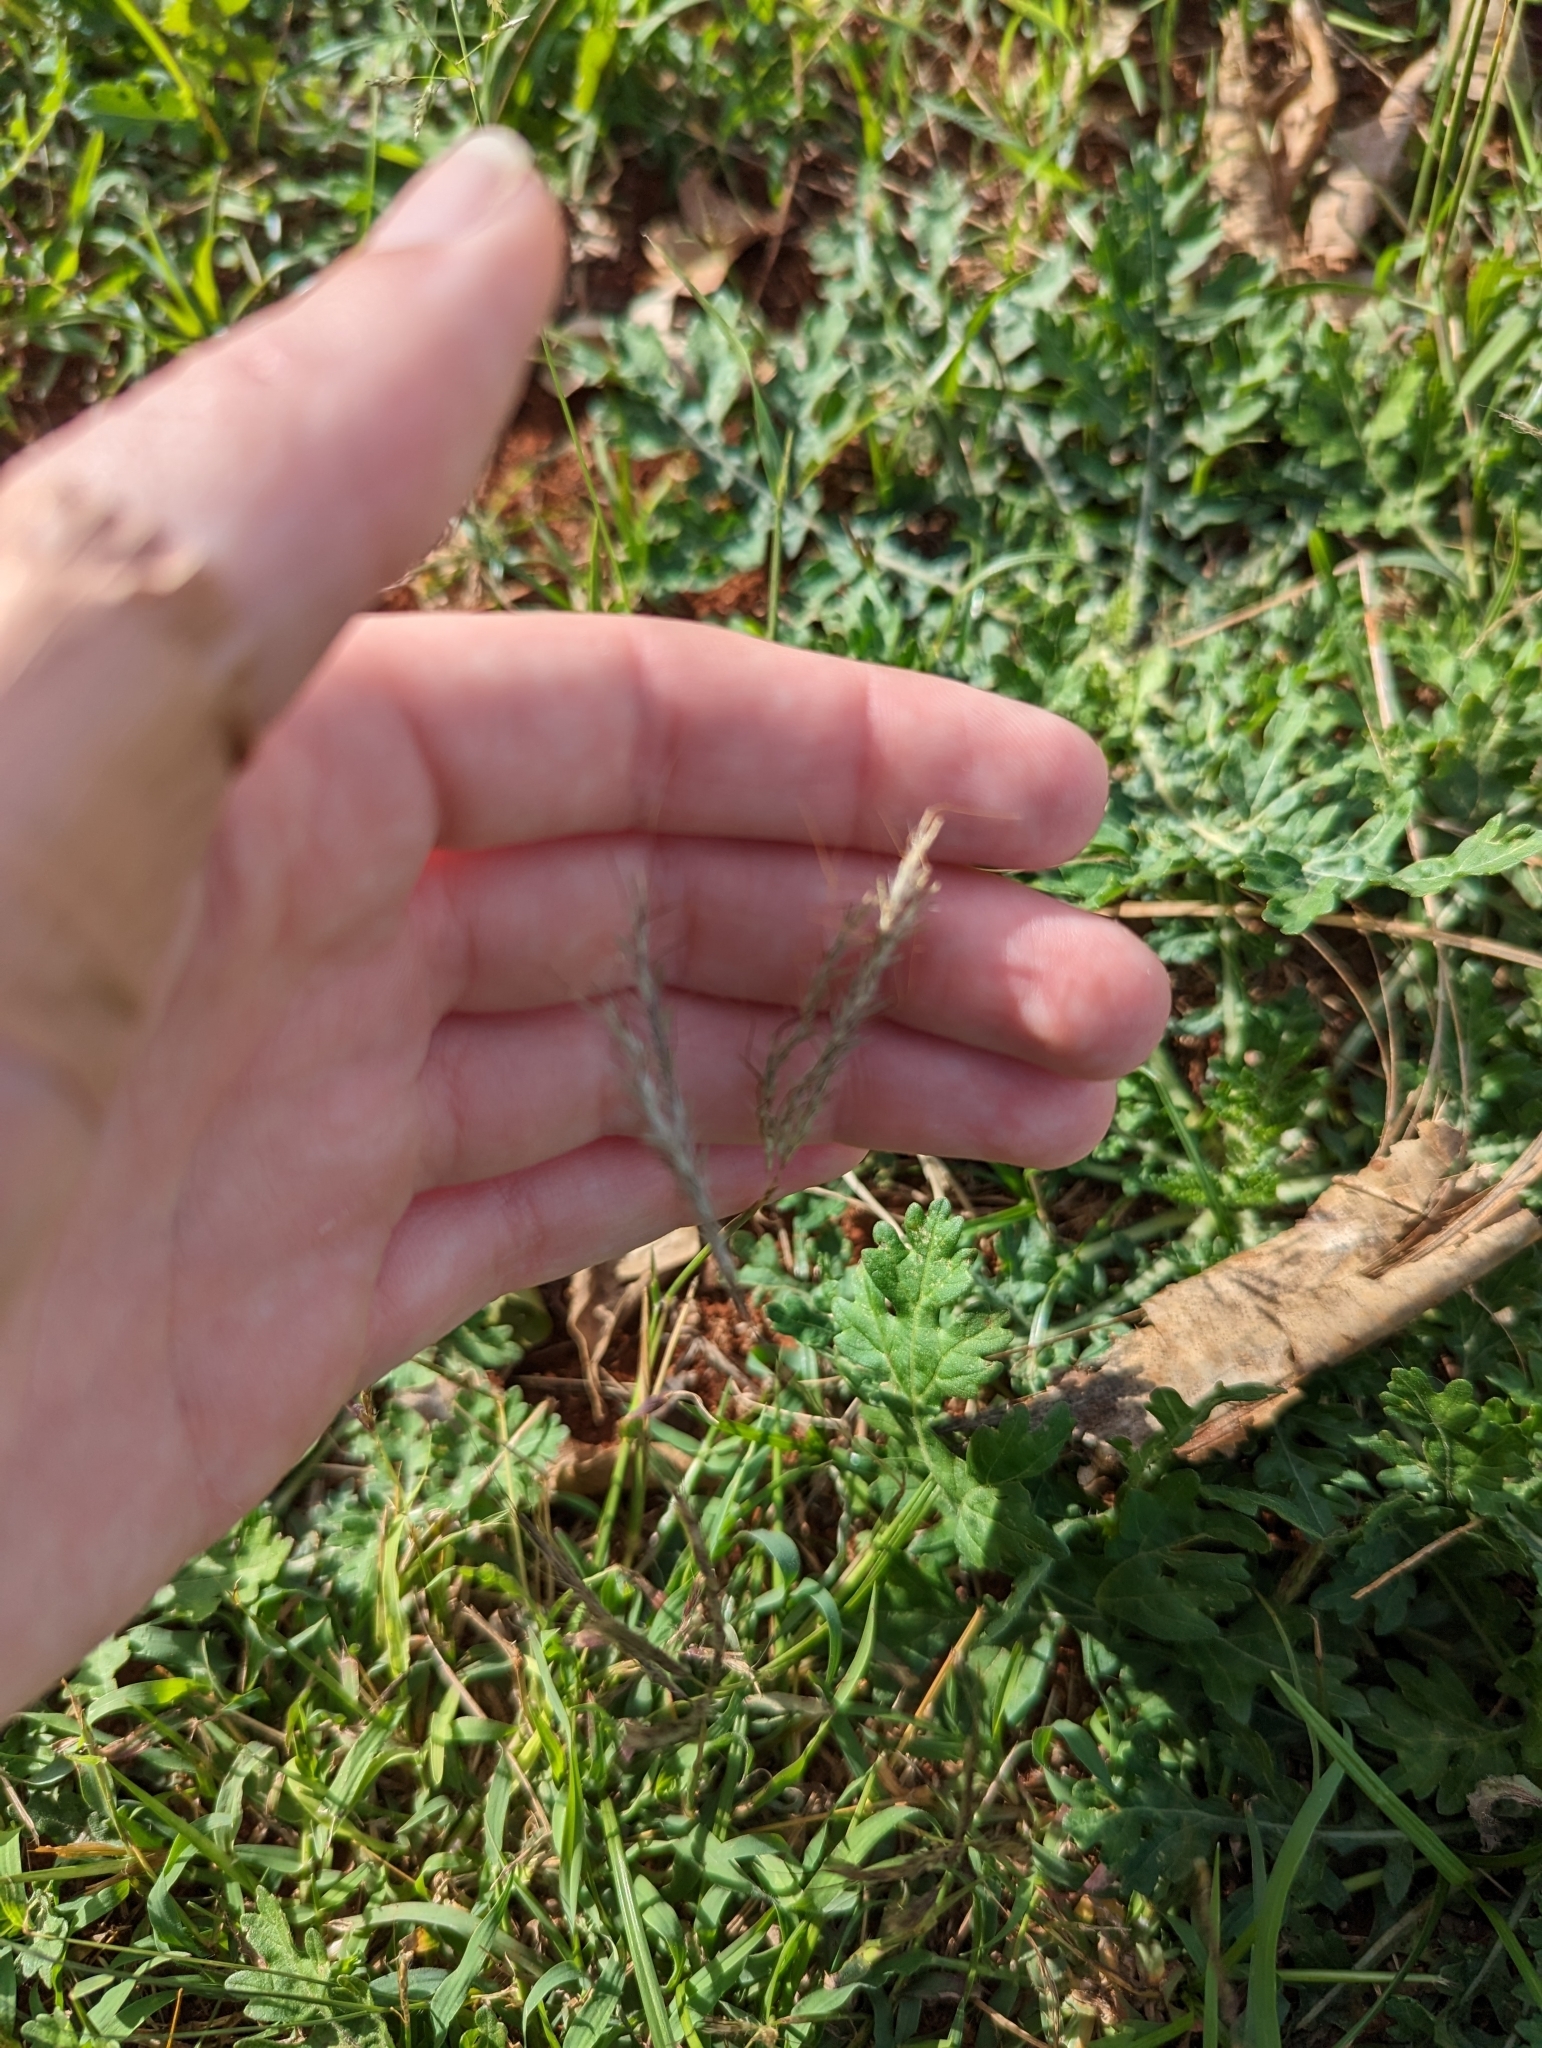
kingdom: Plantae
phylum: Tracheophyta
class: Liliopsida
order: Poales
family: Poaceae
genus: Bothriochloa
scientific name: Bothriochloa pertusa
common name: Pitted beardgrass
